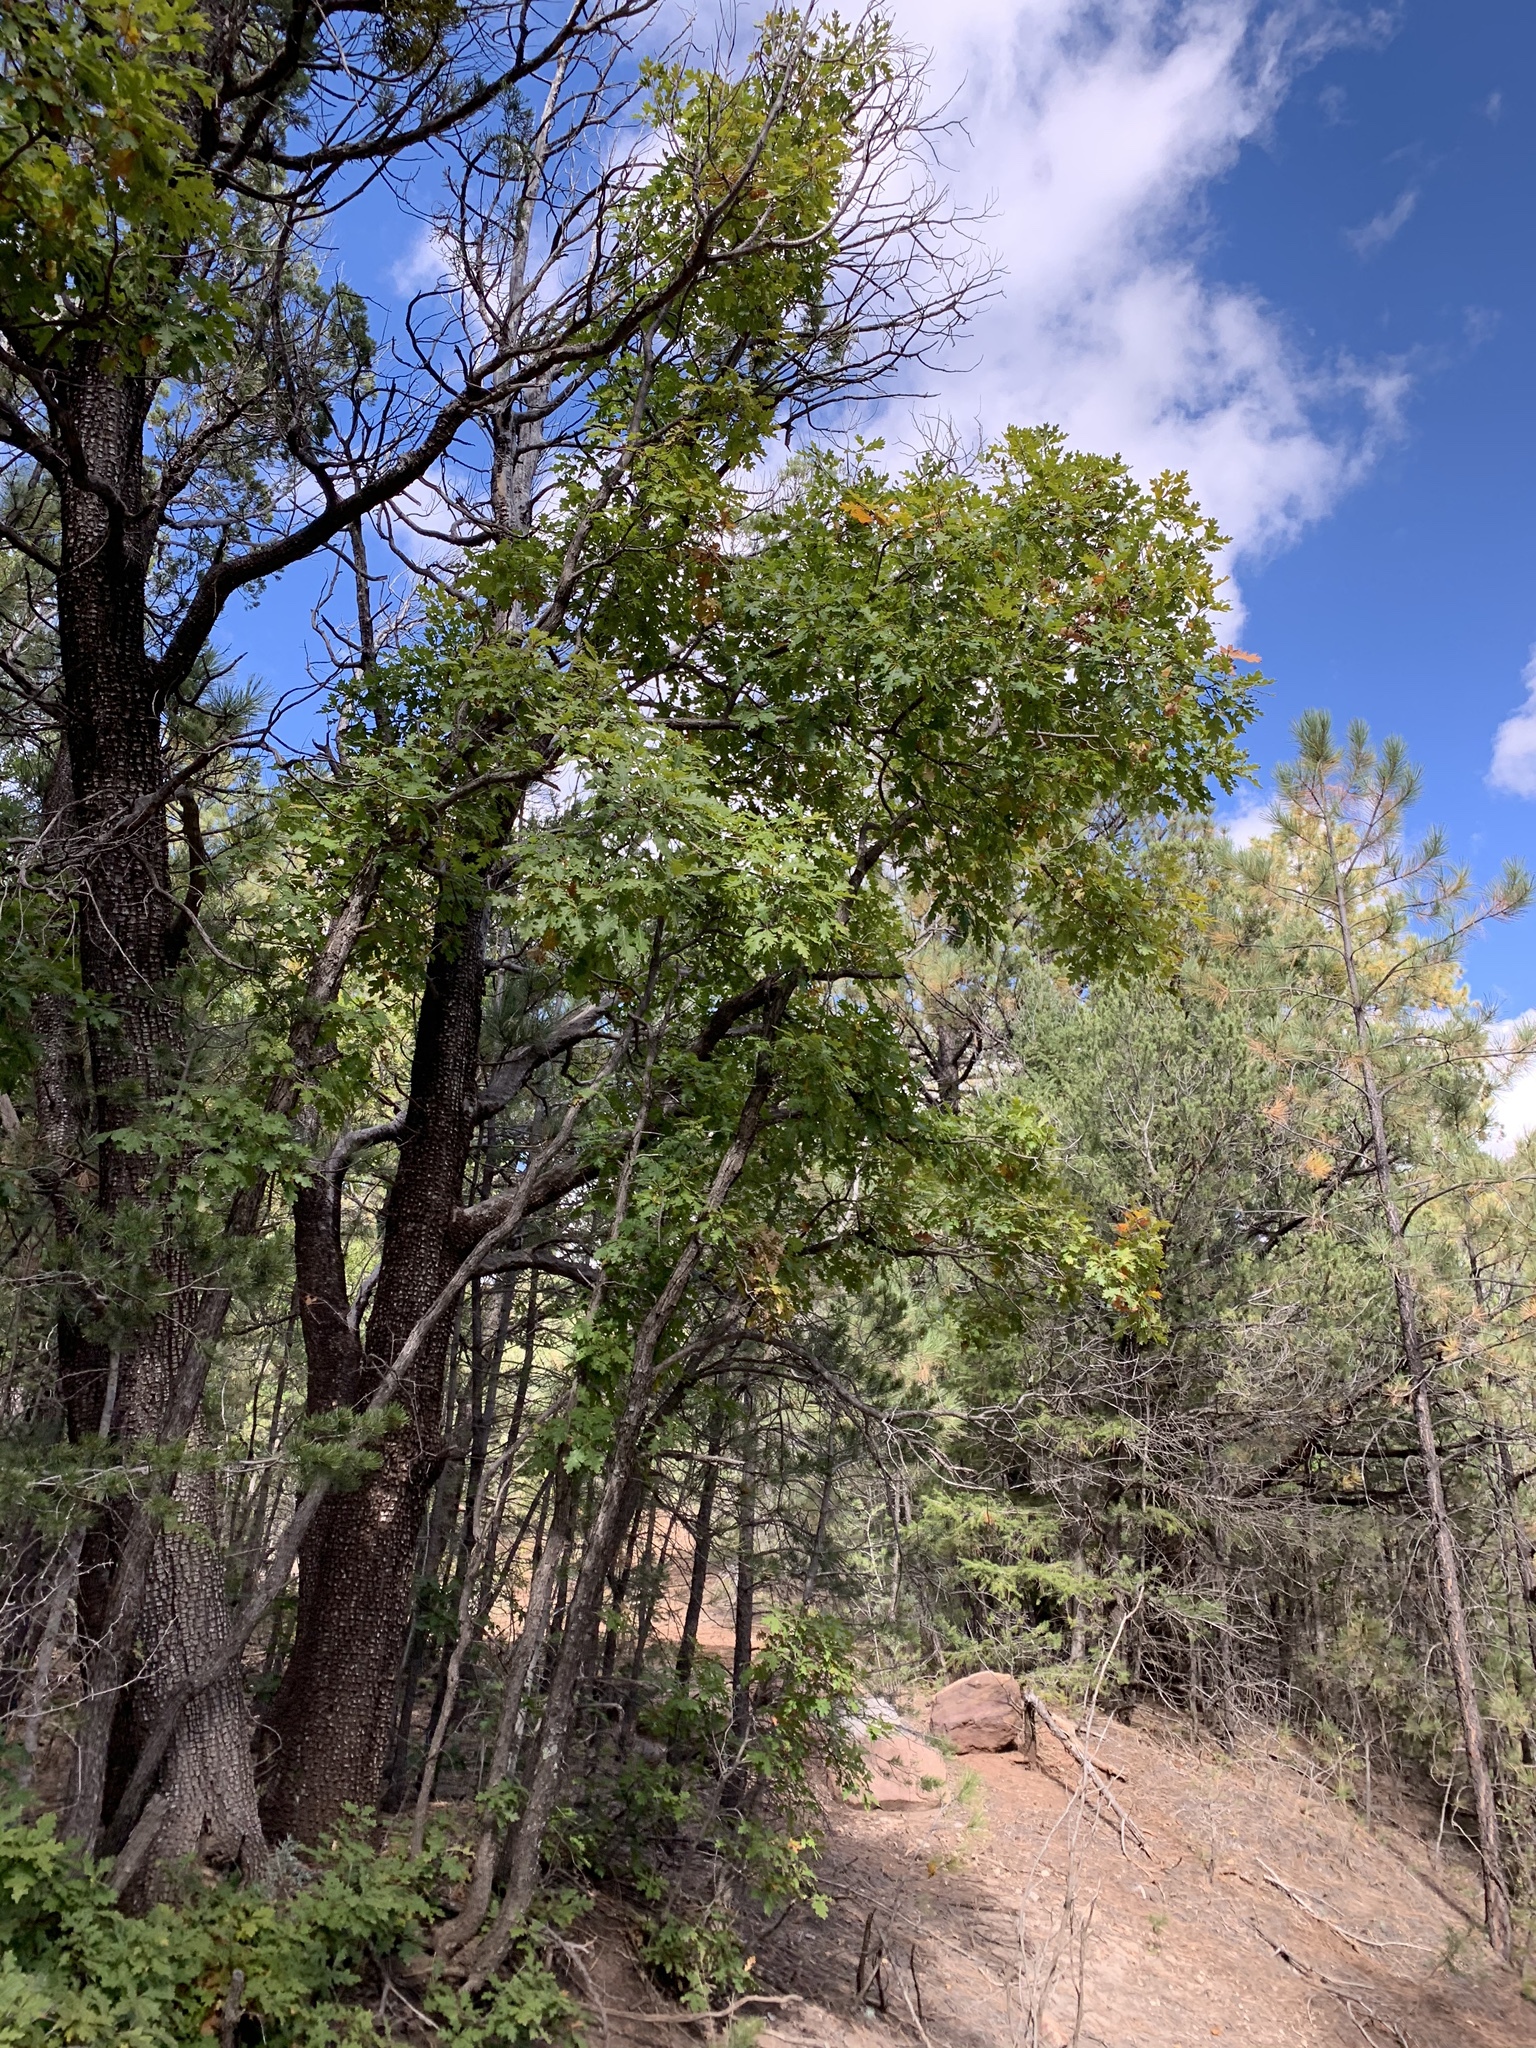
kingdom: Plantae
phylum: Tracheophyta
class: Magnoliopsida
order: Fagales
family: Fagaceae
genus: Quercus
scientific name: Quercus gambelii
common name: Gambel oak
